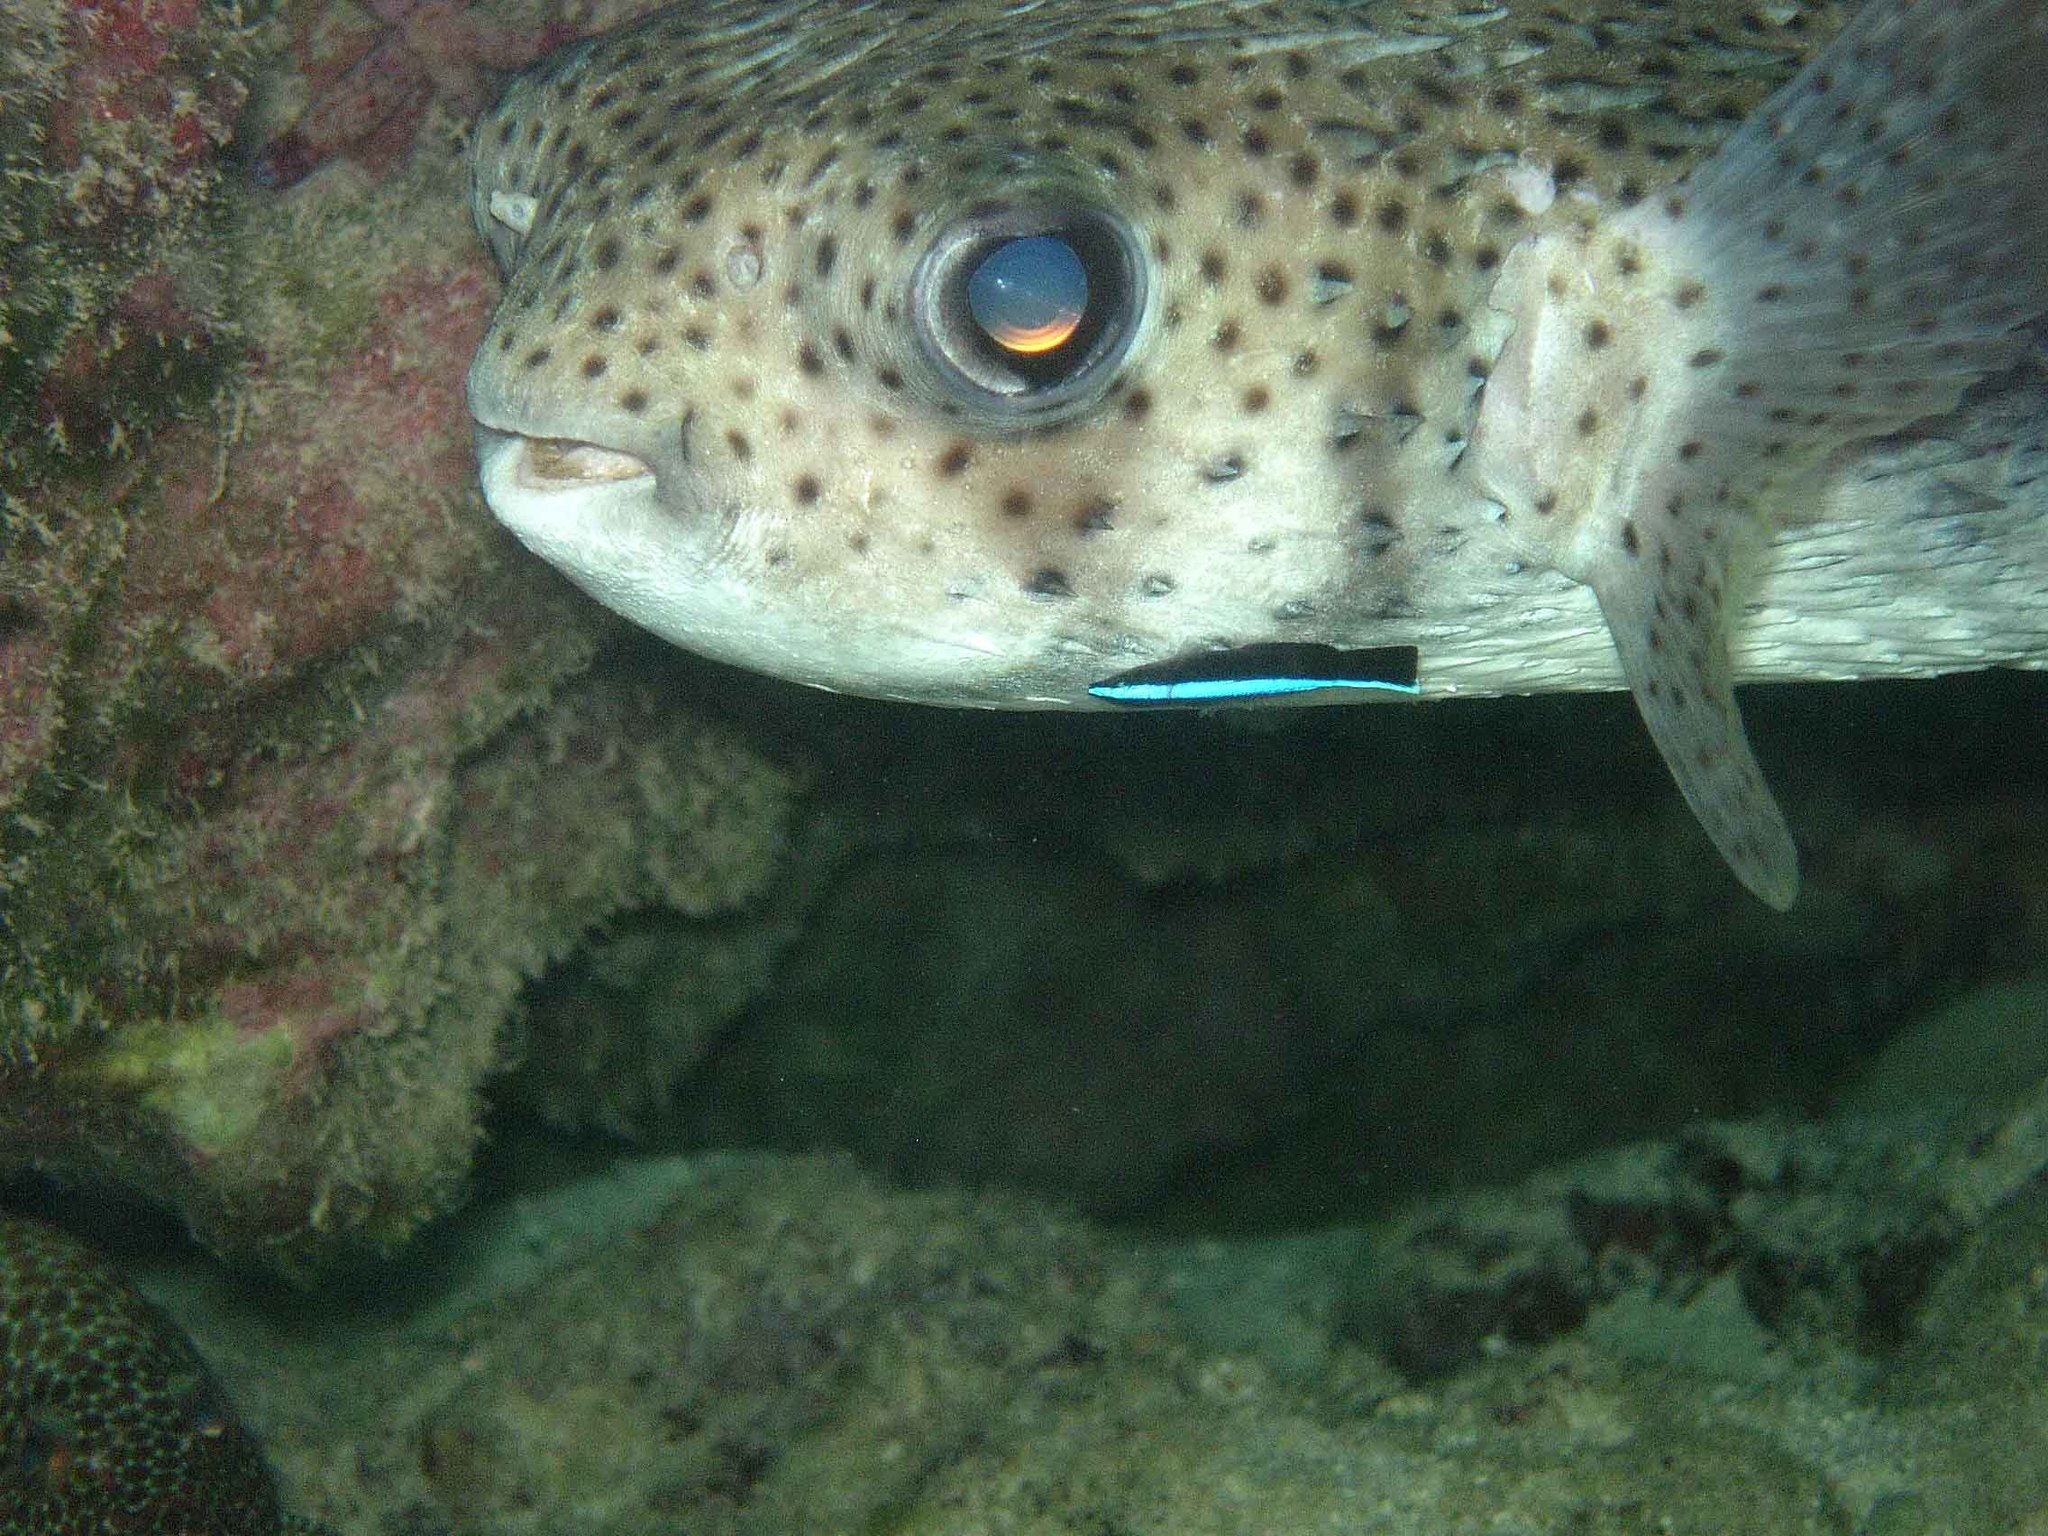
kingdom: Animalia
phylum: Chordata
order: Tetraodontiformes
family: Diodontidae
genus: Diodon
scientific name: Diodon hystrix
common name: Giant porcupinefish
